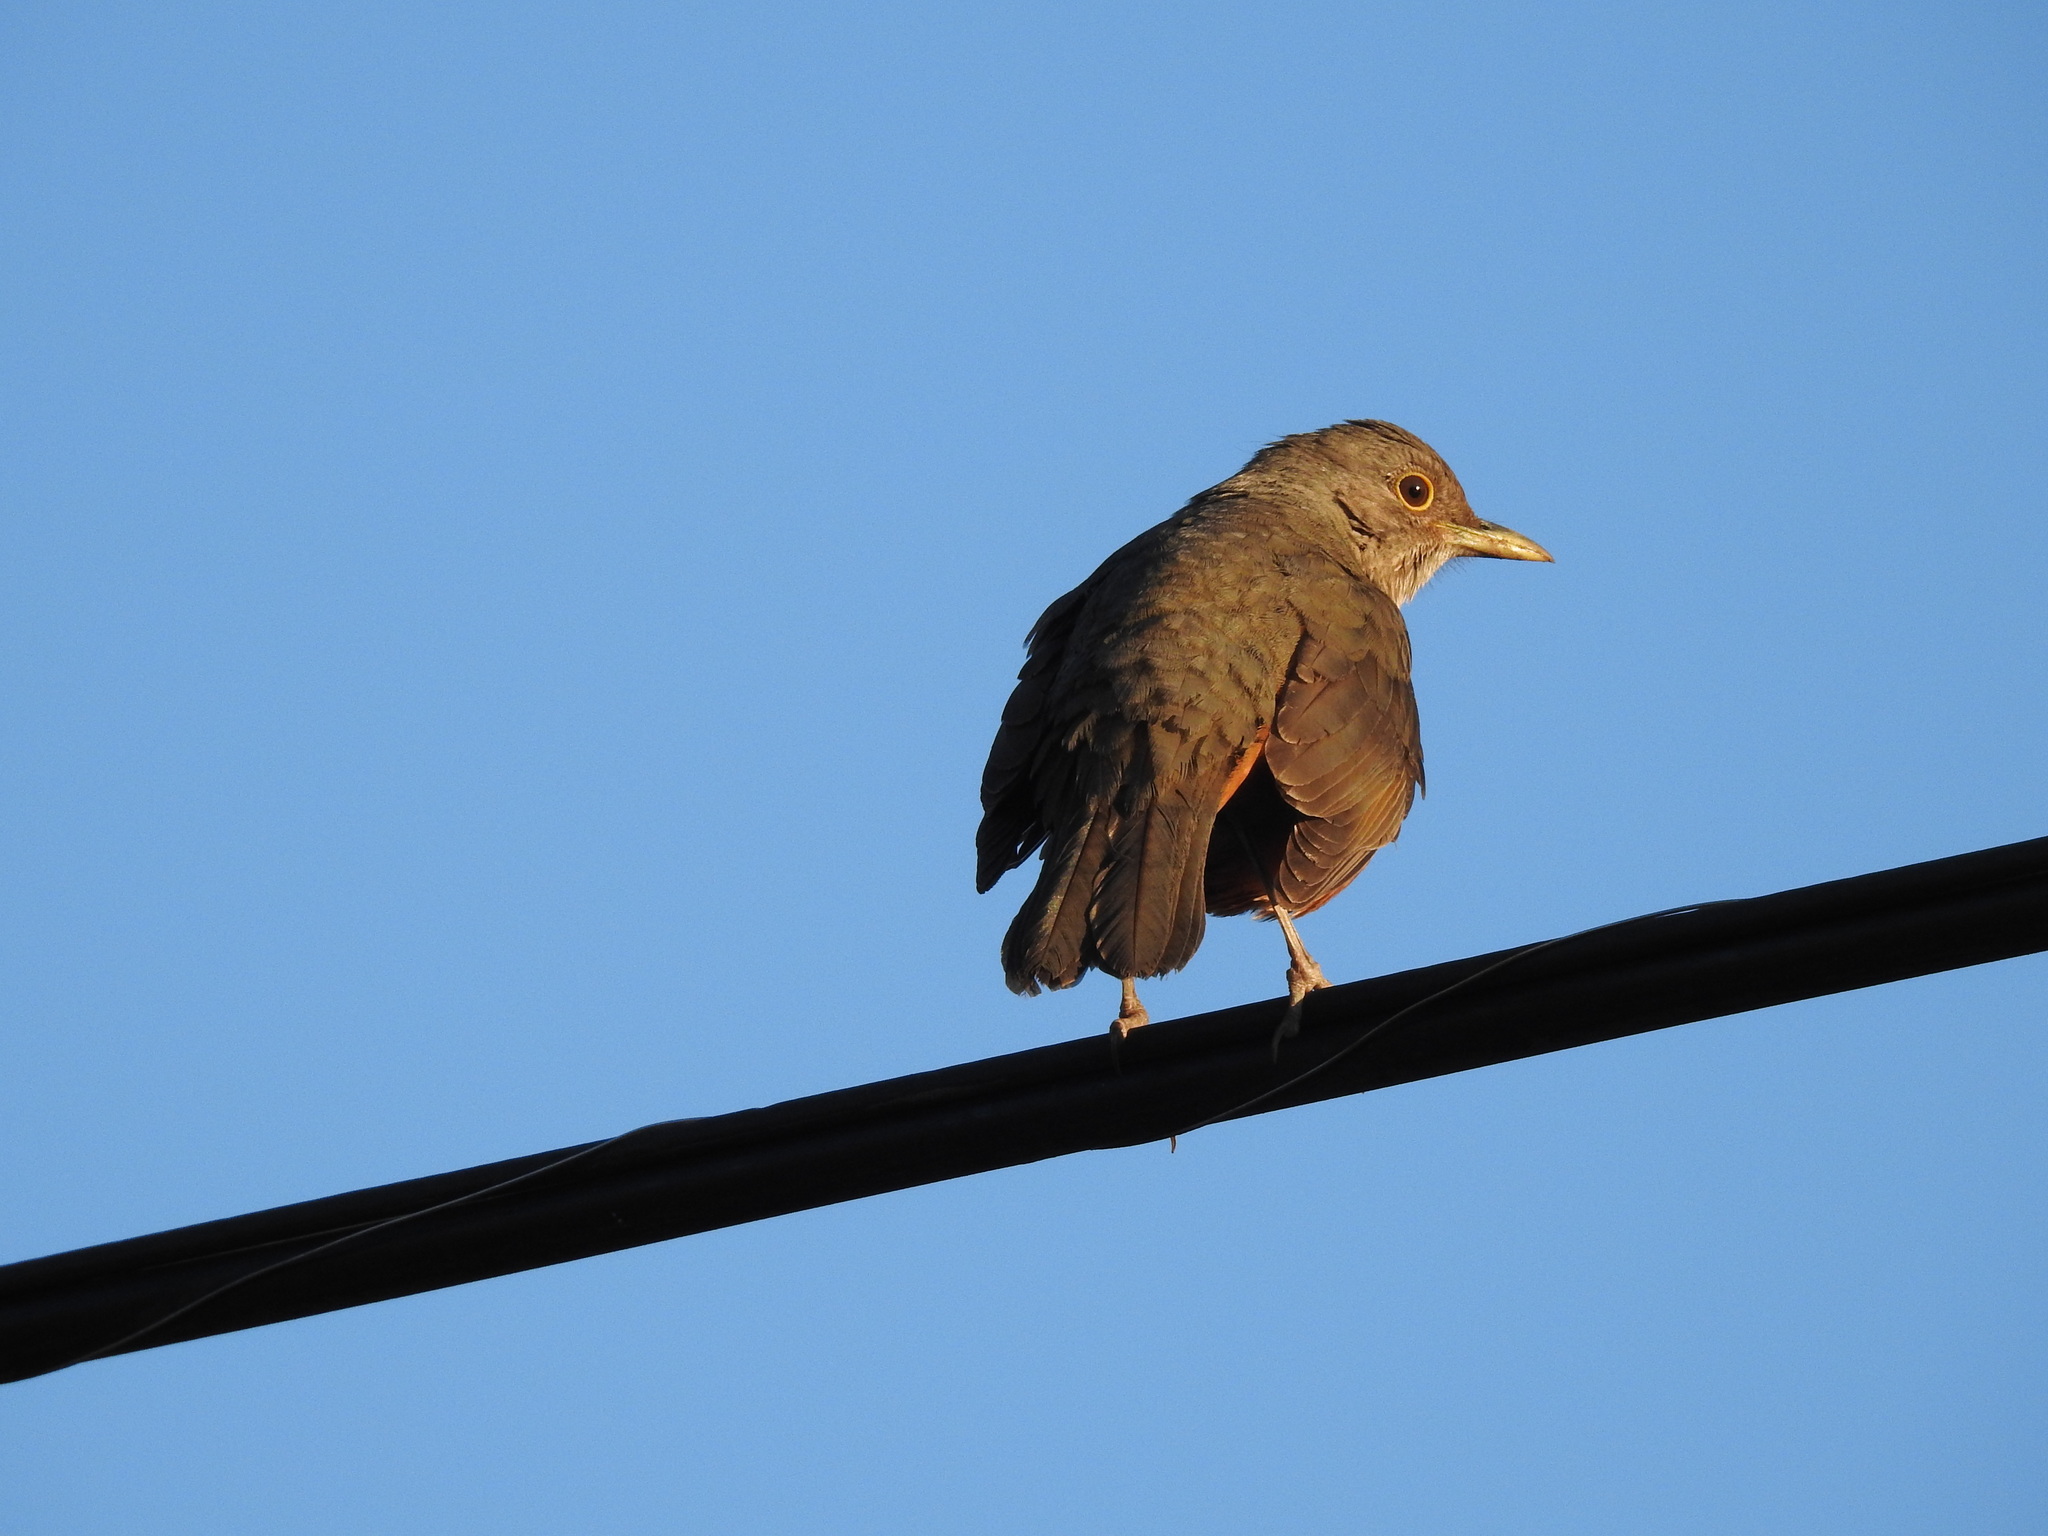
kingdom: Animalia
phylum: Chordata
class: Aves
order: Passeriformes
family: Turdidae
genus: Turdus
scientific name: Turdus rufiventris
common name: Rufous-bellied thrush
